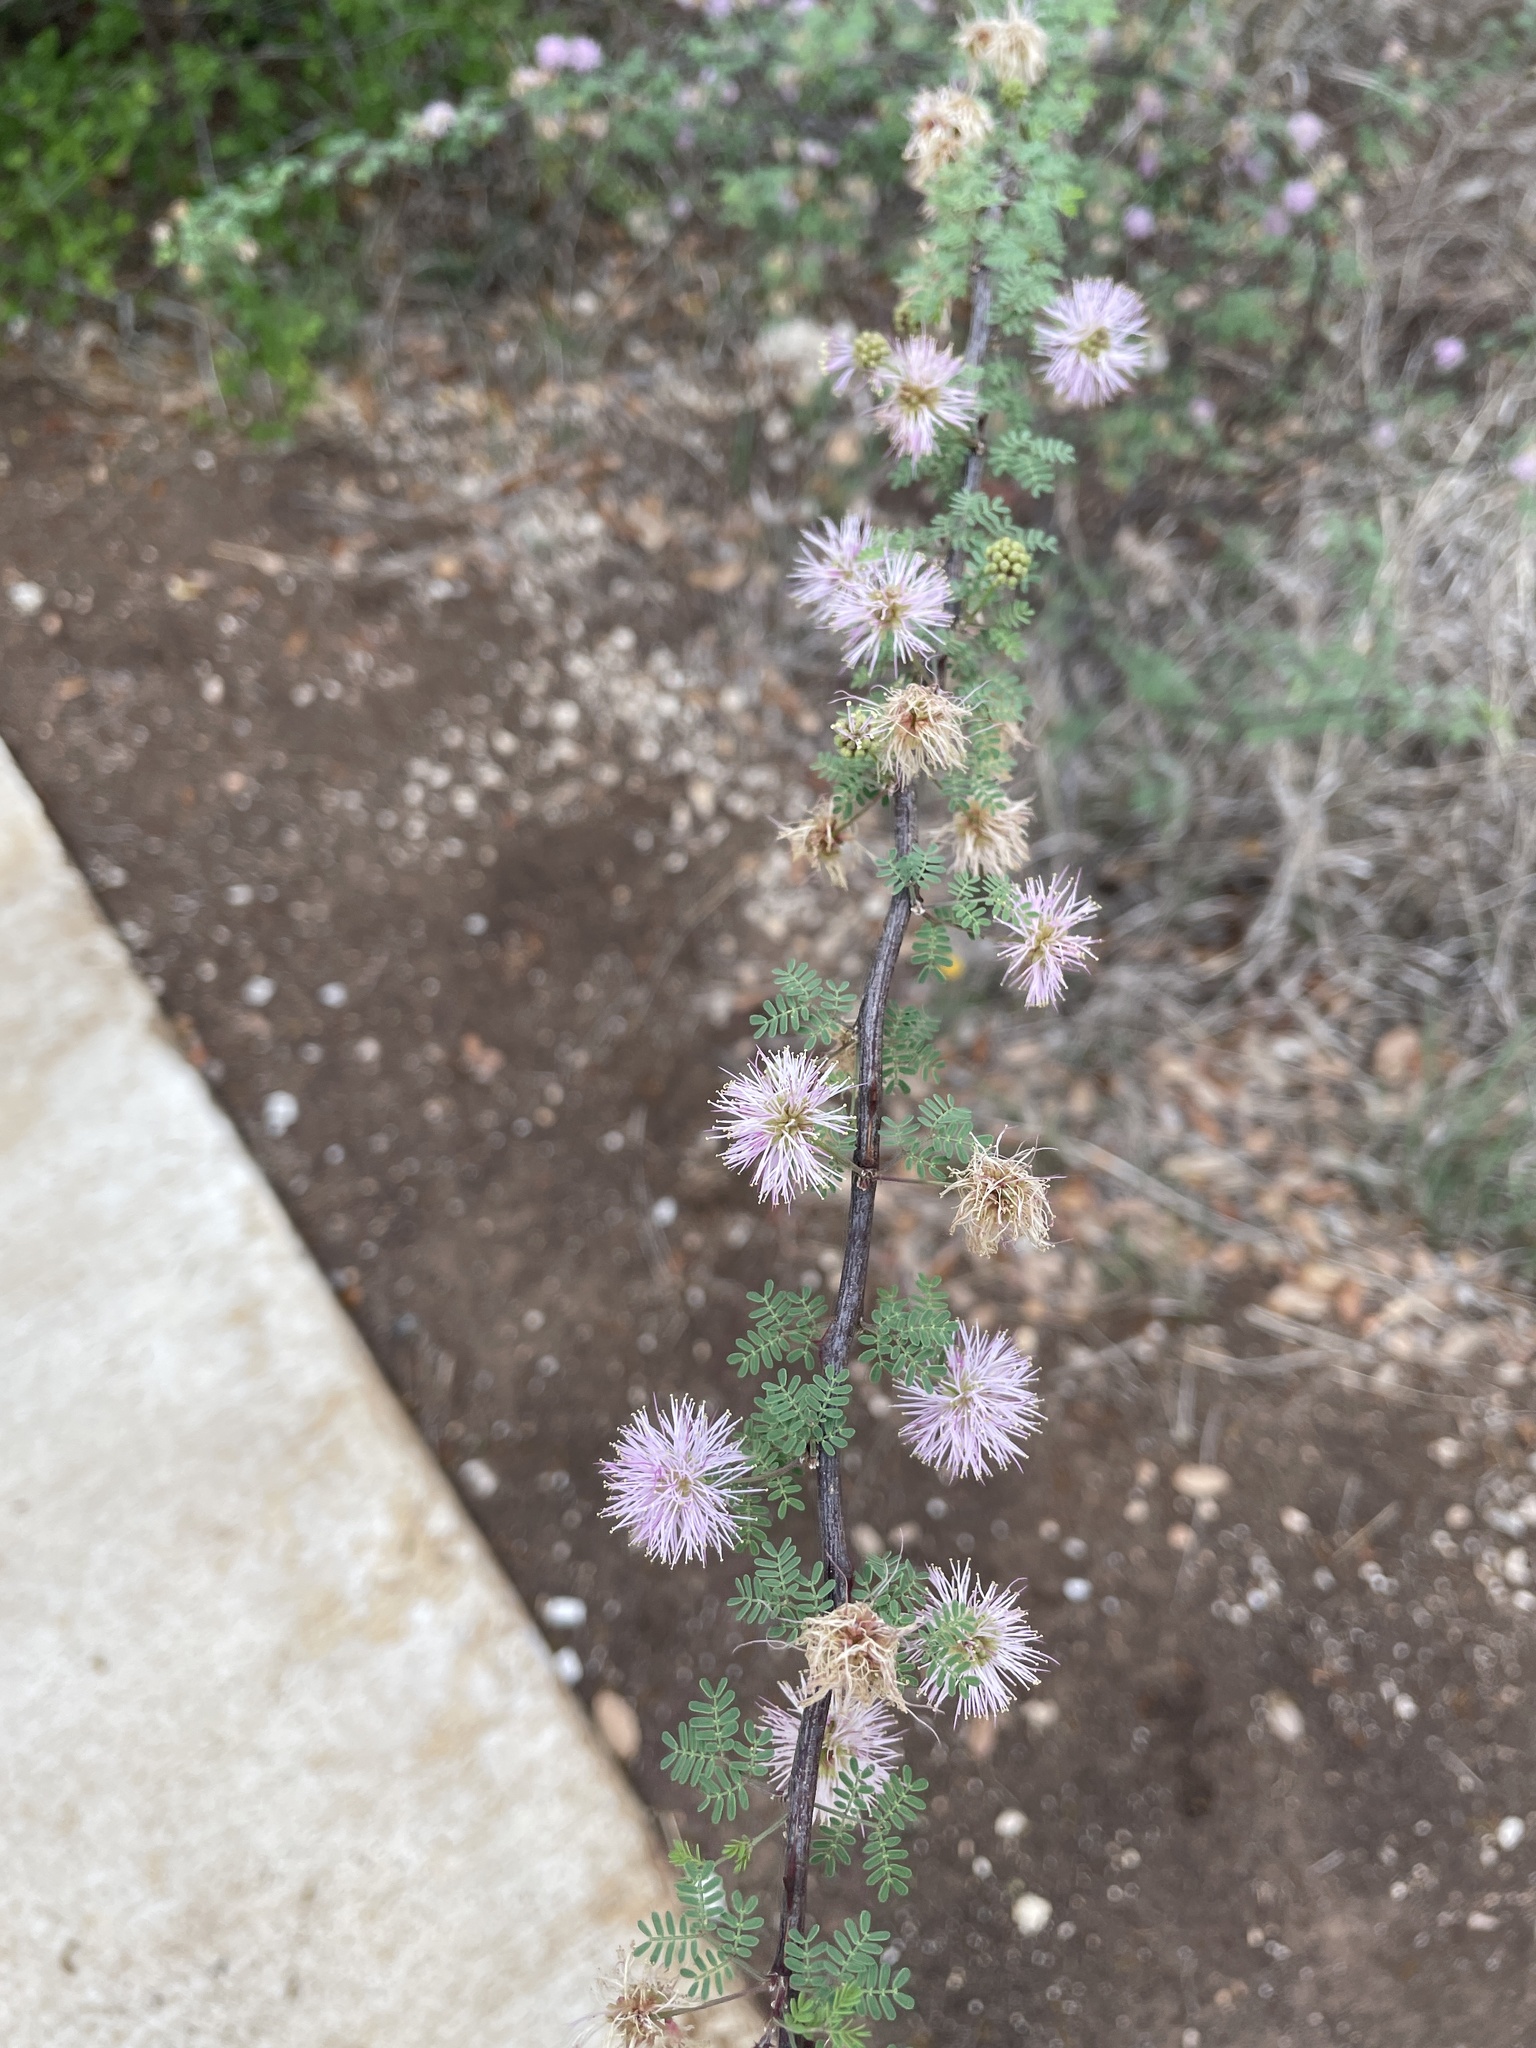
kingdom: Plantae
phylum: Tracheophyta
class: Magnoliopsida
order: Fabales
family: Fabaceae
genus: Mimosa
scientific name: Mimosa texana
